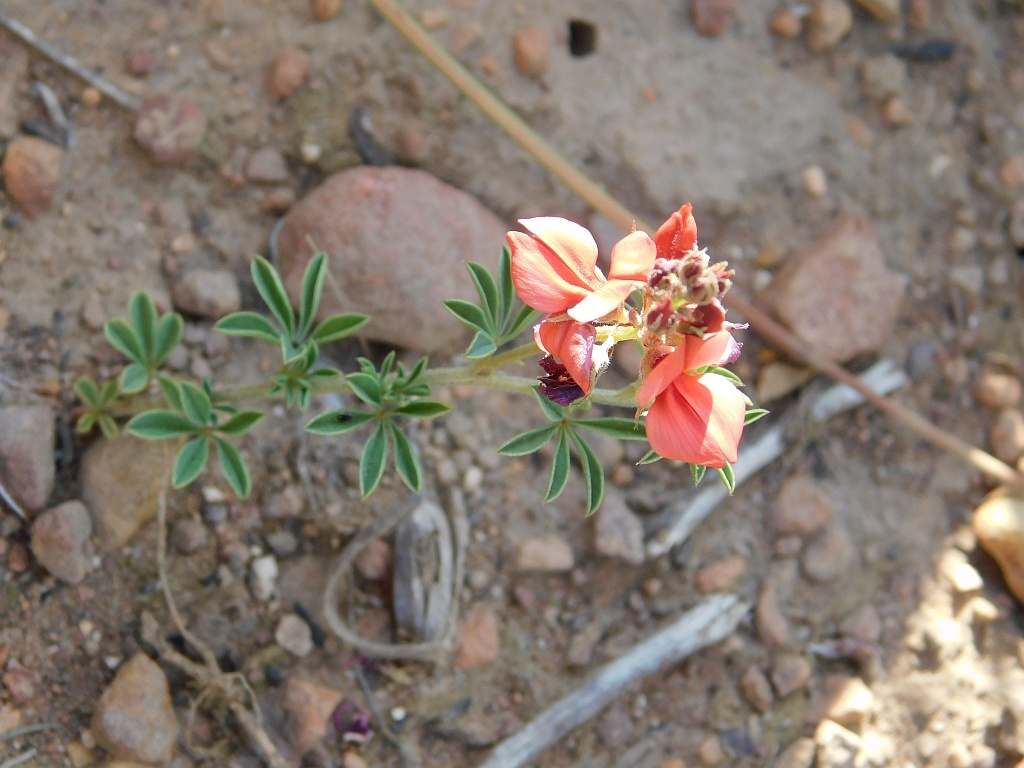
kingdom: Plantae
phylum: Tracheophyta
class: Magnoliopsida
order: Fabales
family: Fabaceae
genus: Indigofera
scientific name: Indigofera digitata
